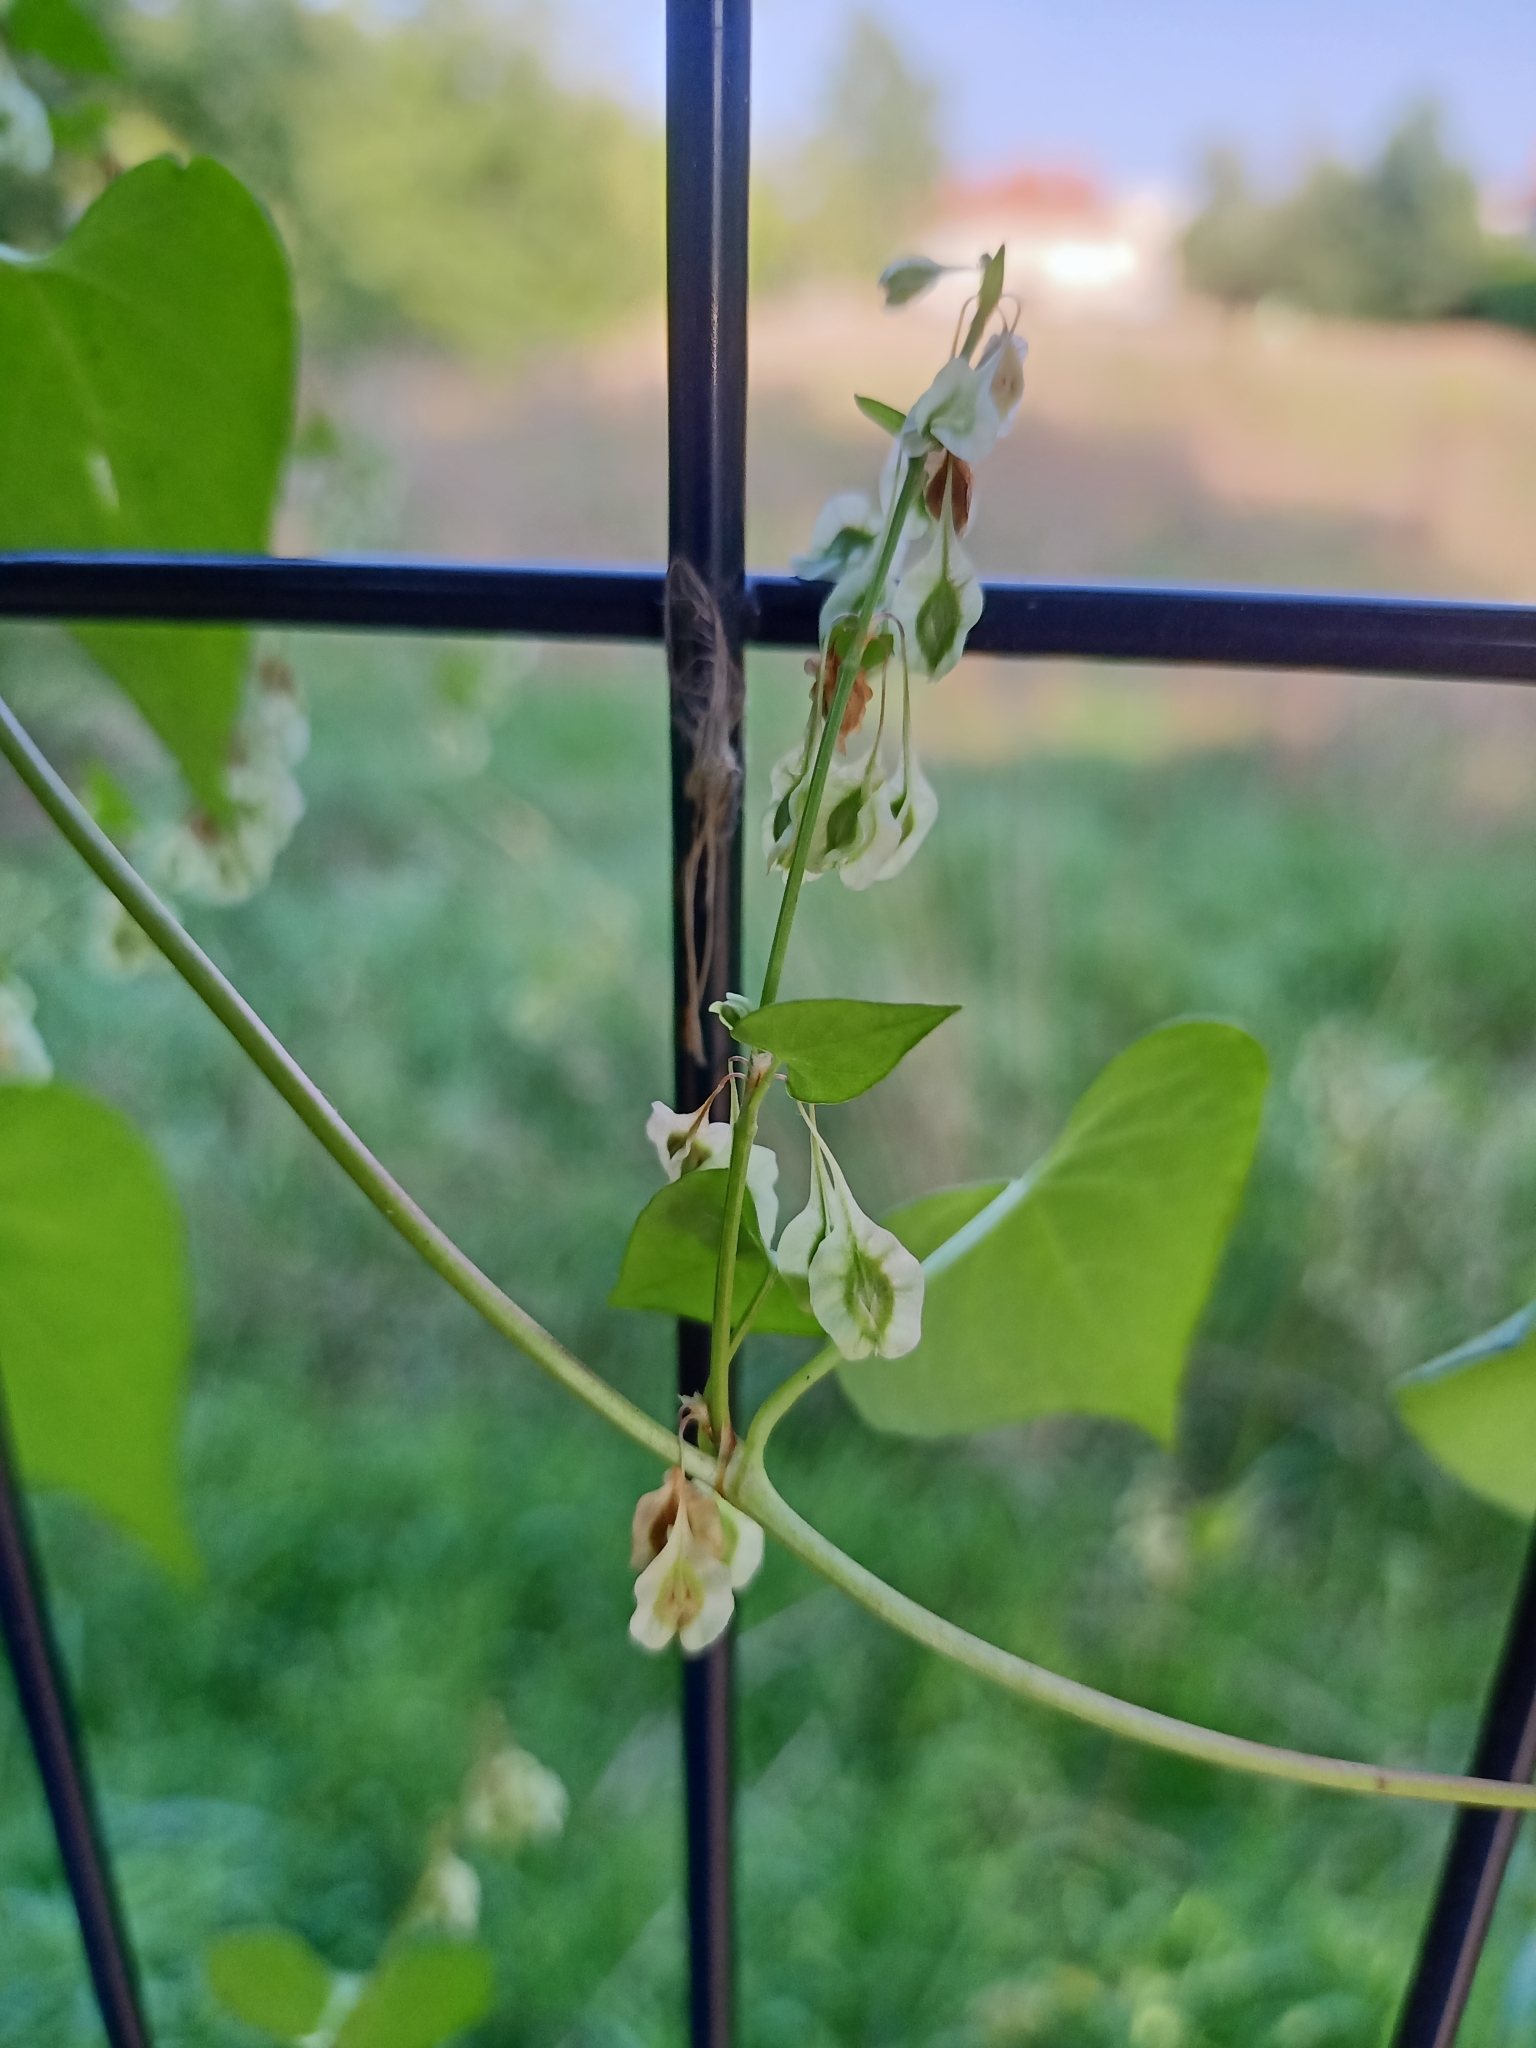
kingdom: Plantae
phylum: Tracheophyta
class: Magnoliopsida
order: Caryophyllales
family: Polygonaceae
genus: Fallopia
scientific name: Fallopia convolvulus
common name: Black bindweed
